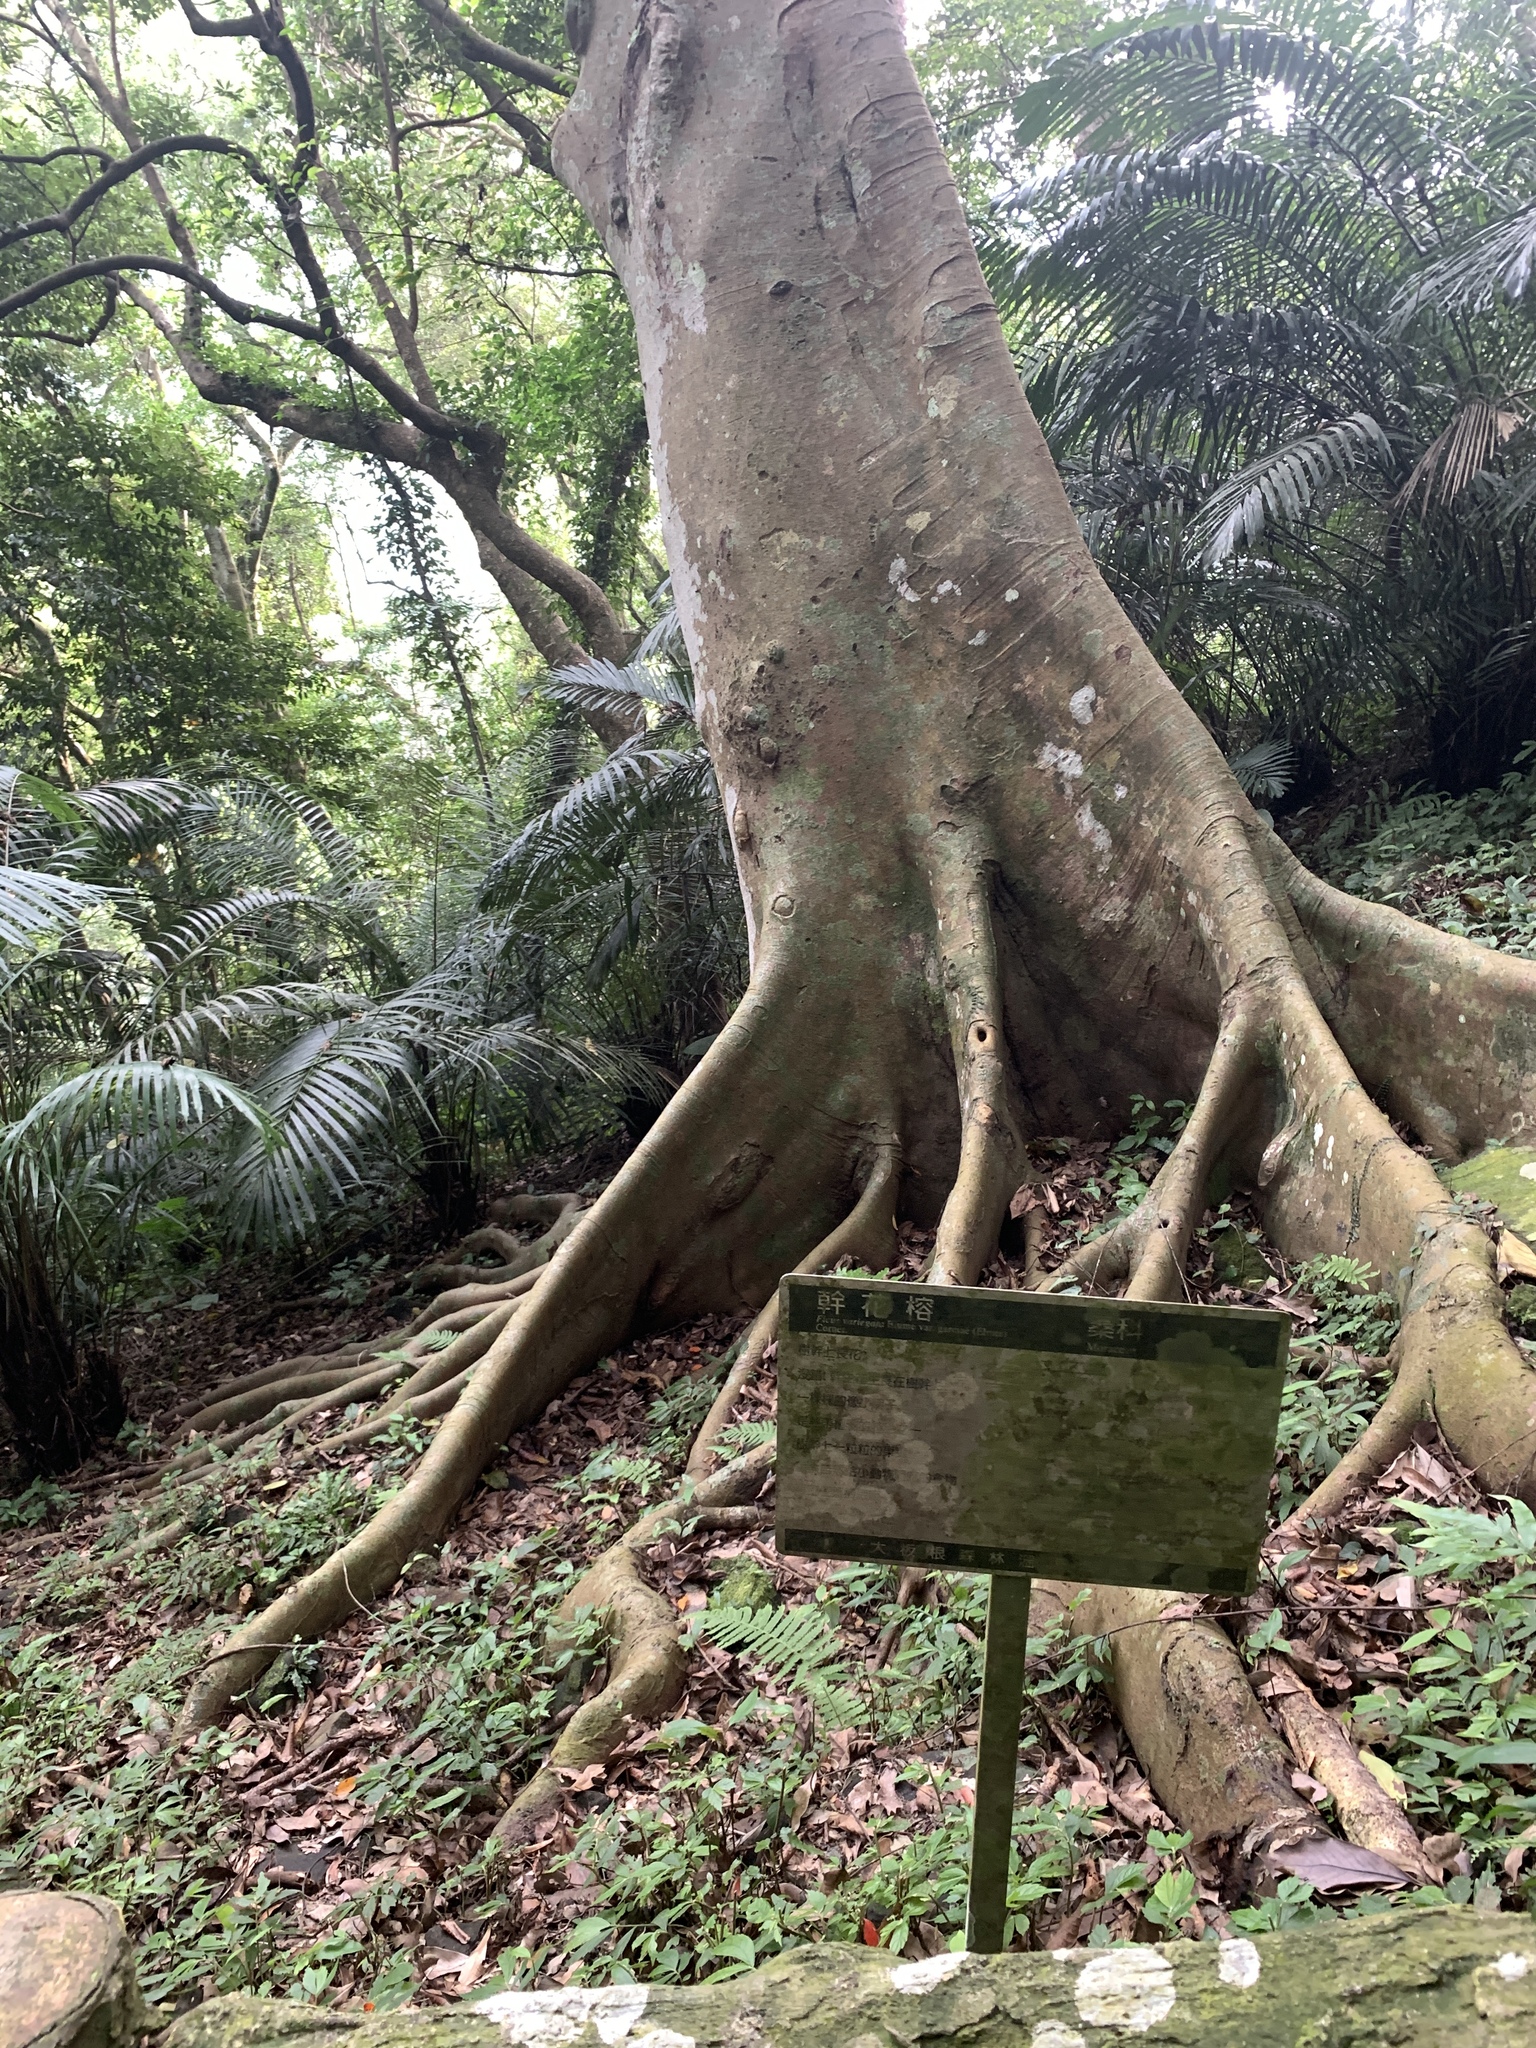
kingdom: Plantae
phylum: Tracheophyta
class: Magnoliopsida
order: Rosales
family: Moraceae
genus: Ficus
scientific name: Ficus variegata
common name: Variegated fig
